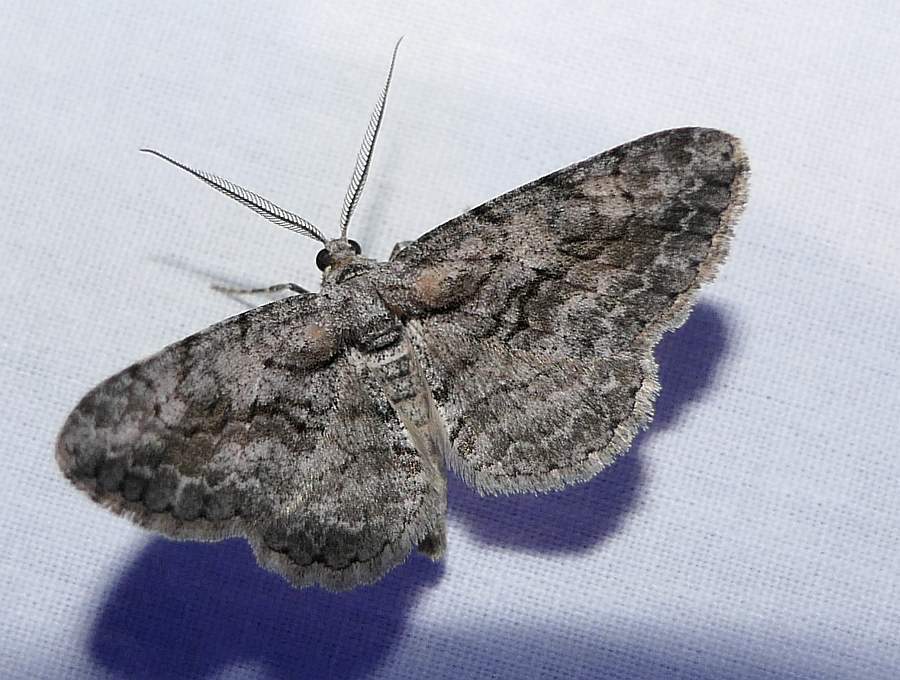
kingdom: Animalia
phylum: Arthropoda
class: Insecta
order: Lepidoptera
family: Geometridae
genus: Anavitrinella
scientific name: Anavitrinella pampinaria
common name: Common gray
